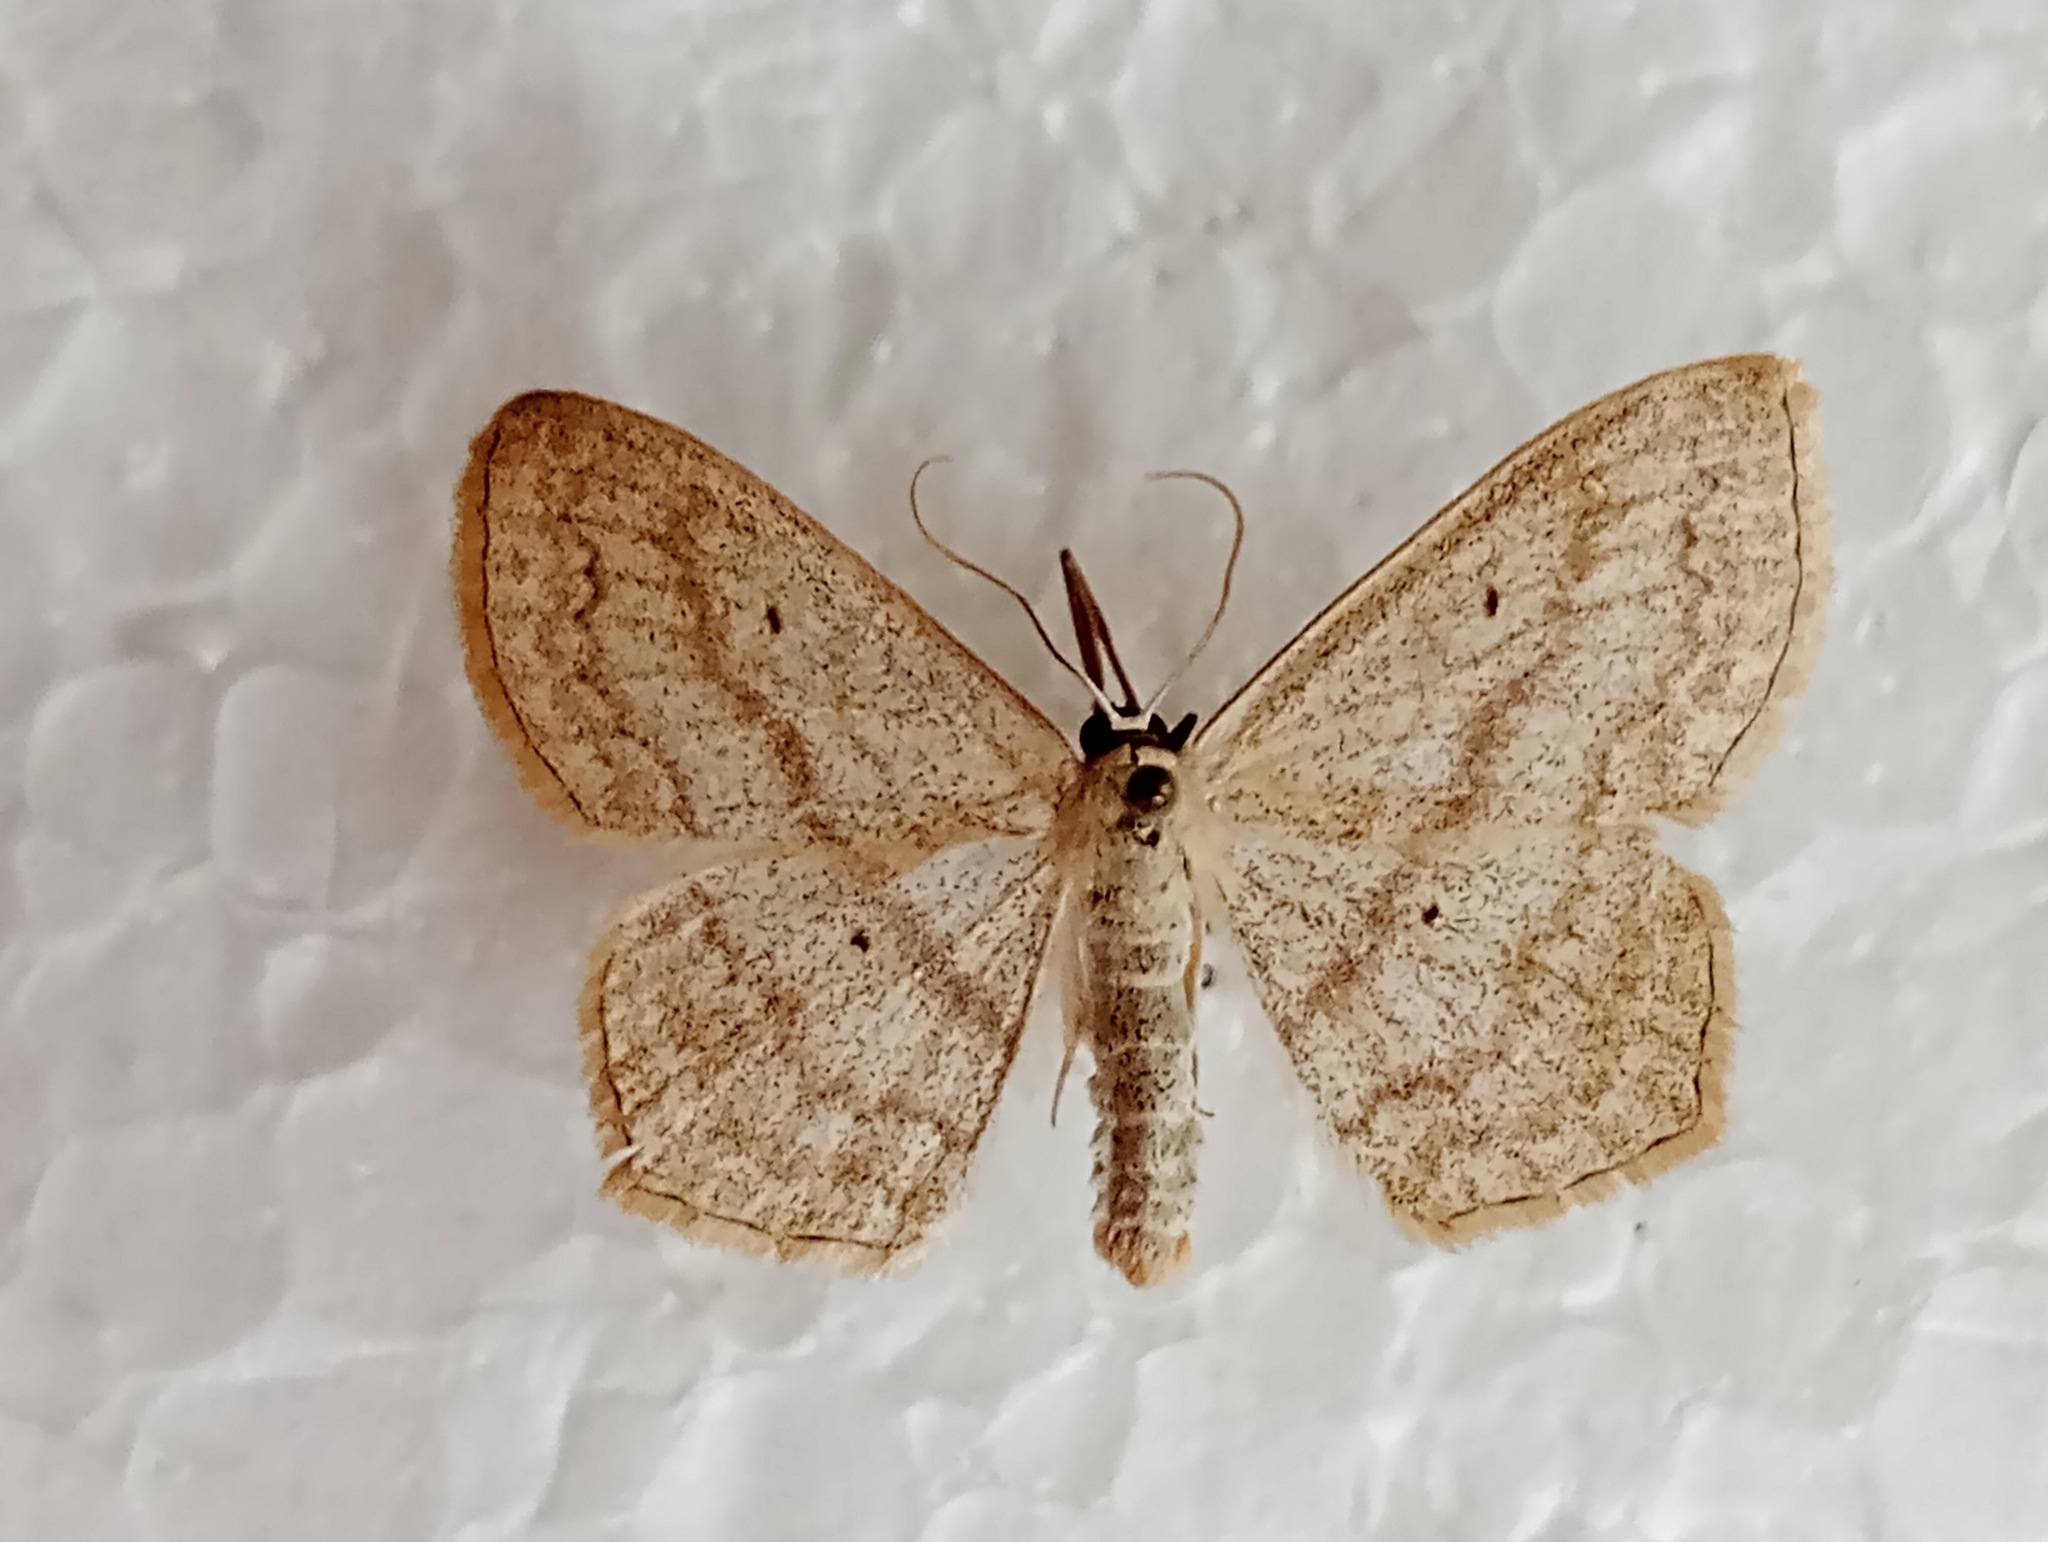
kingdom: Animalia
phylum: Arthropoda
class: Insecta
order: Lepidoptera
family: Geometridae
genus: Scopula
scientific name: Scopula nigropunctata
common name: Sub-angled wave
